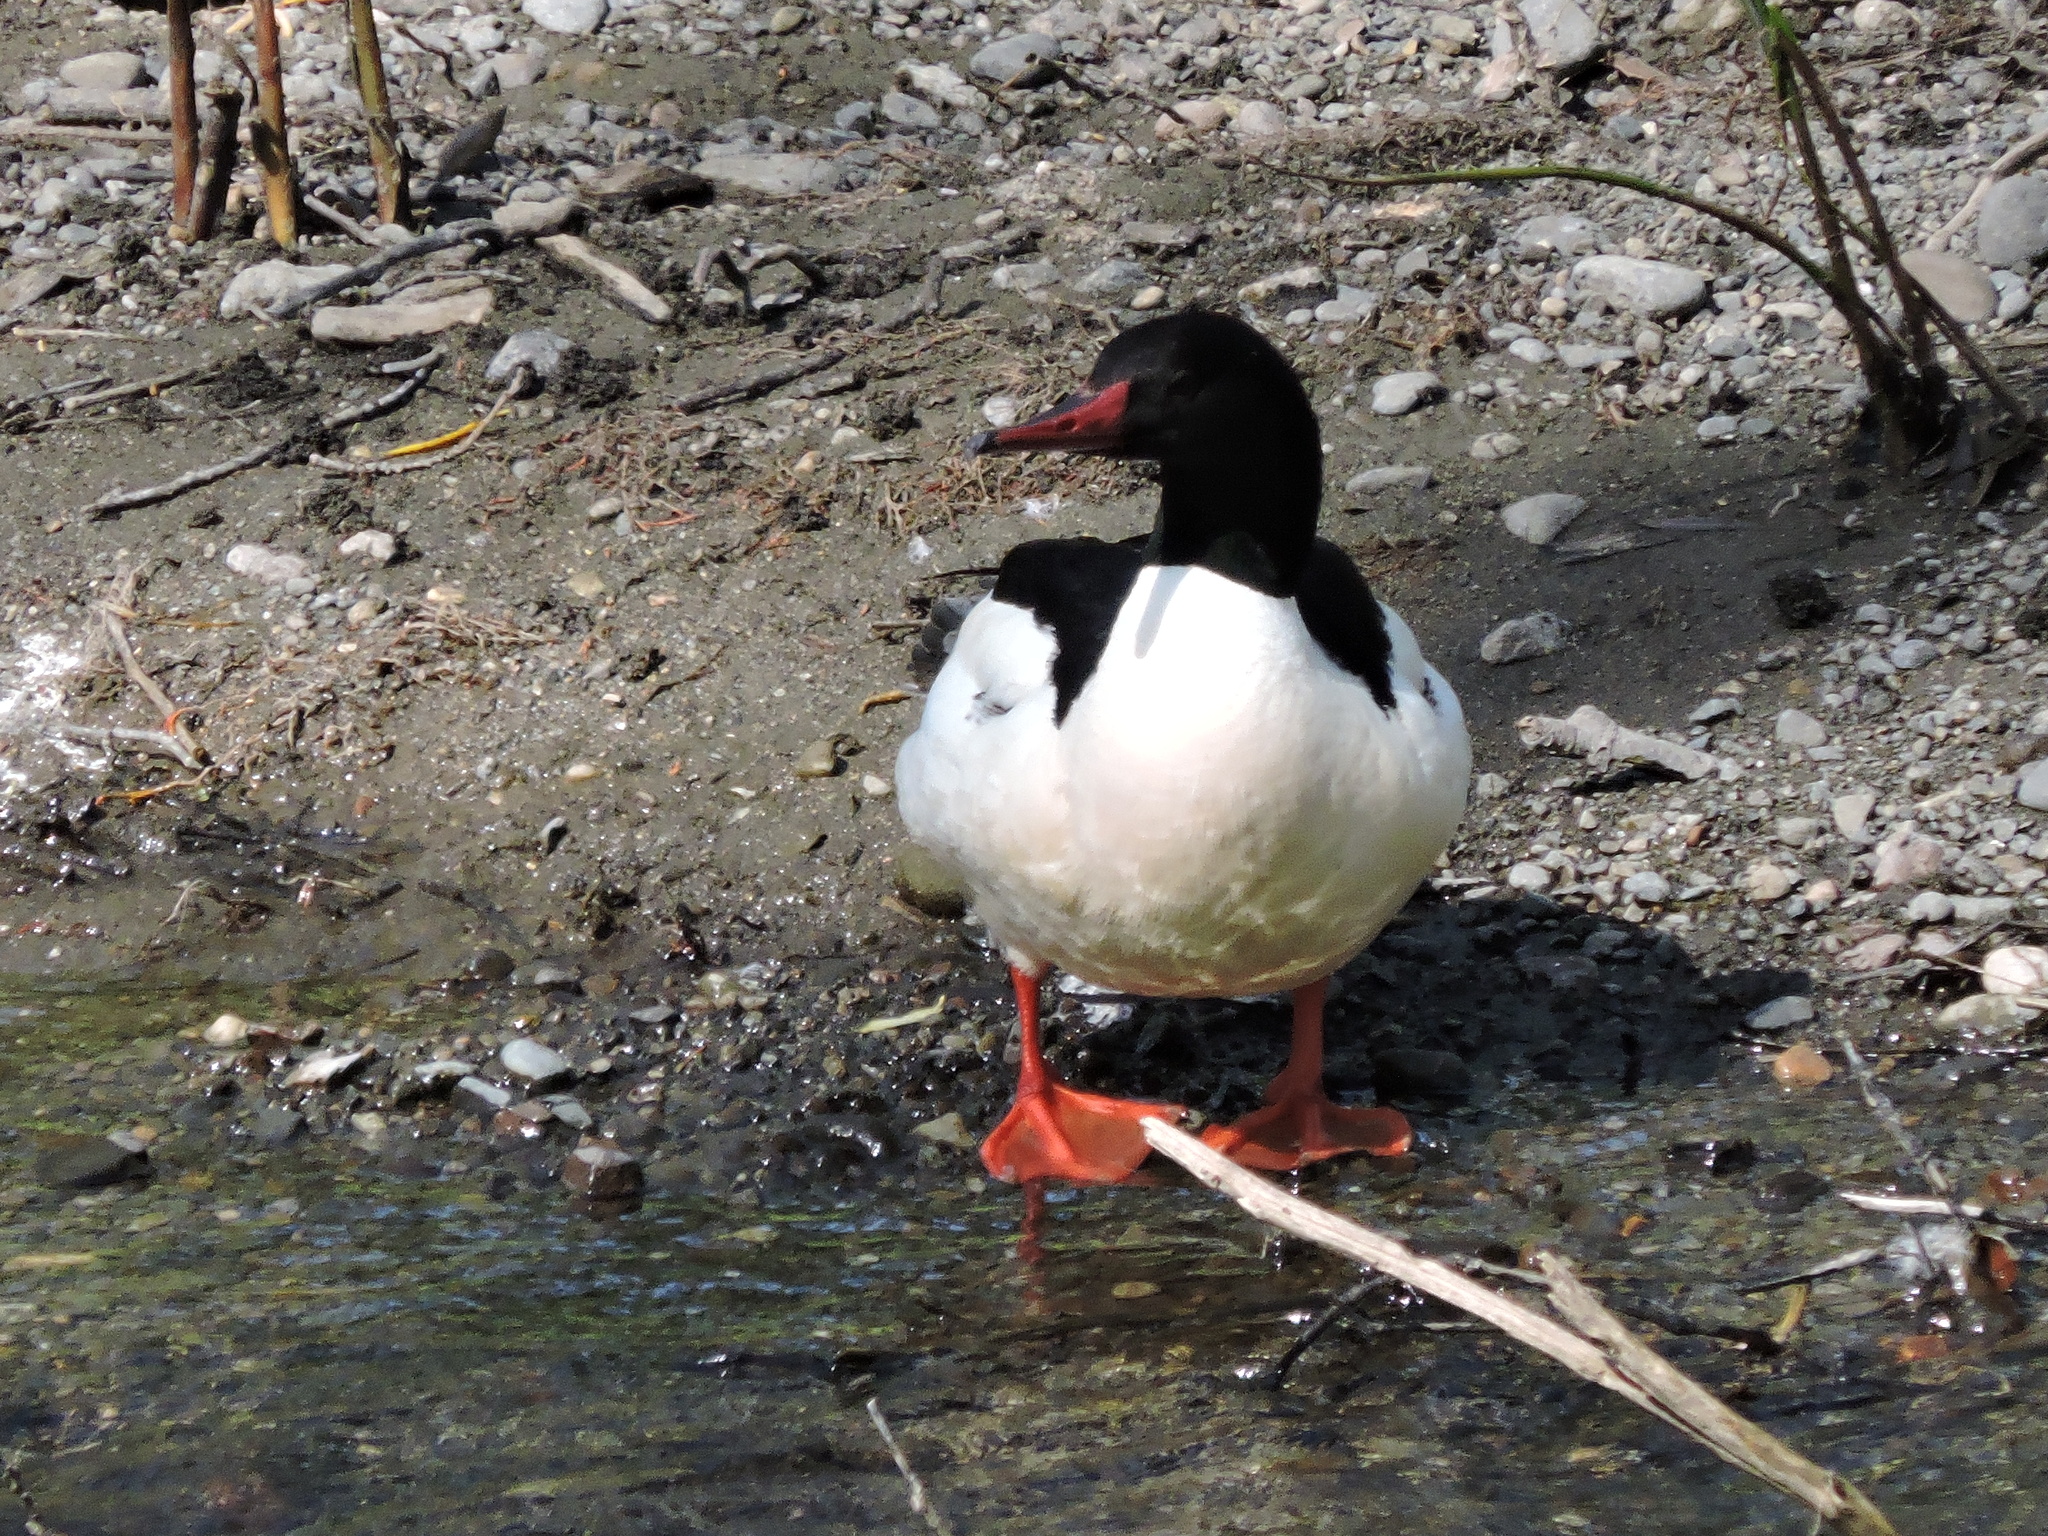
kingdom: Animalia
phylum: Chordata
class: Aves
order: Anseriformes
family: Anatidae
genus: Mergus
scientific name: Mergus merganser
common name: Common merganser
